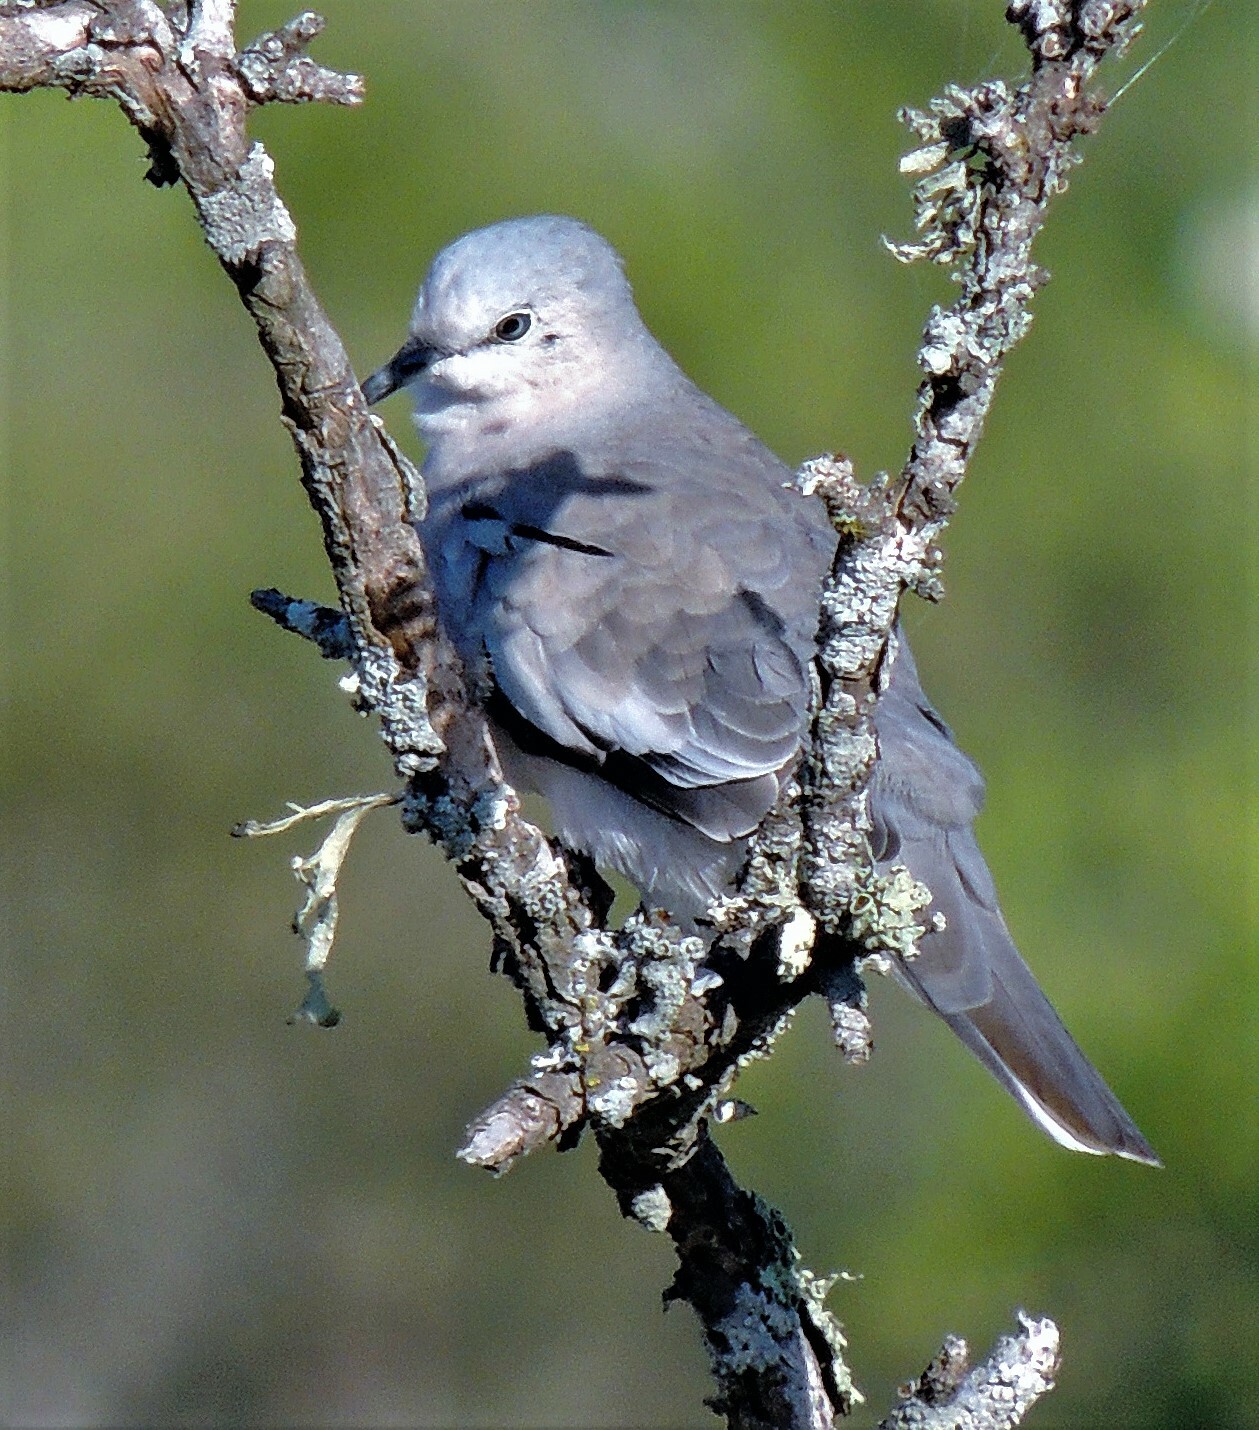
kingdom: Animalia
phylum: Chordata
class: Aves
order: Columbiformes
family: Columbidae
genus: Columbina
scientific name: Columbina picui
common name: Picui ground dove
